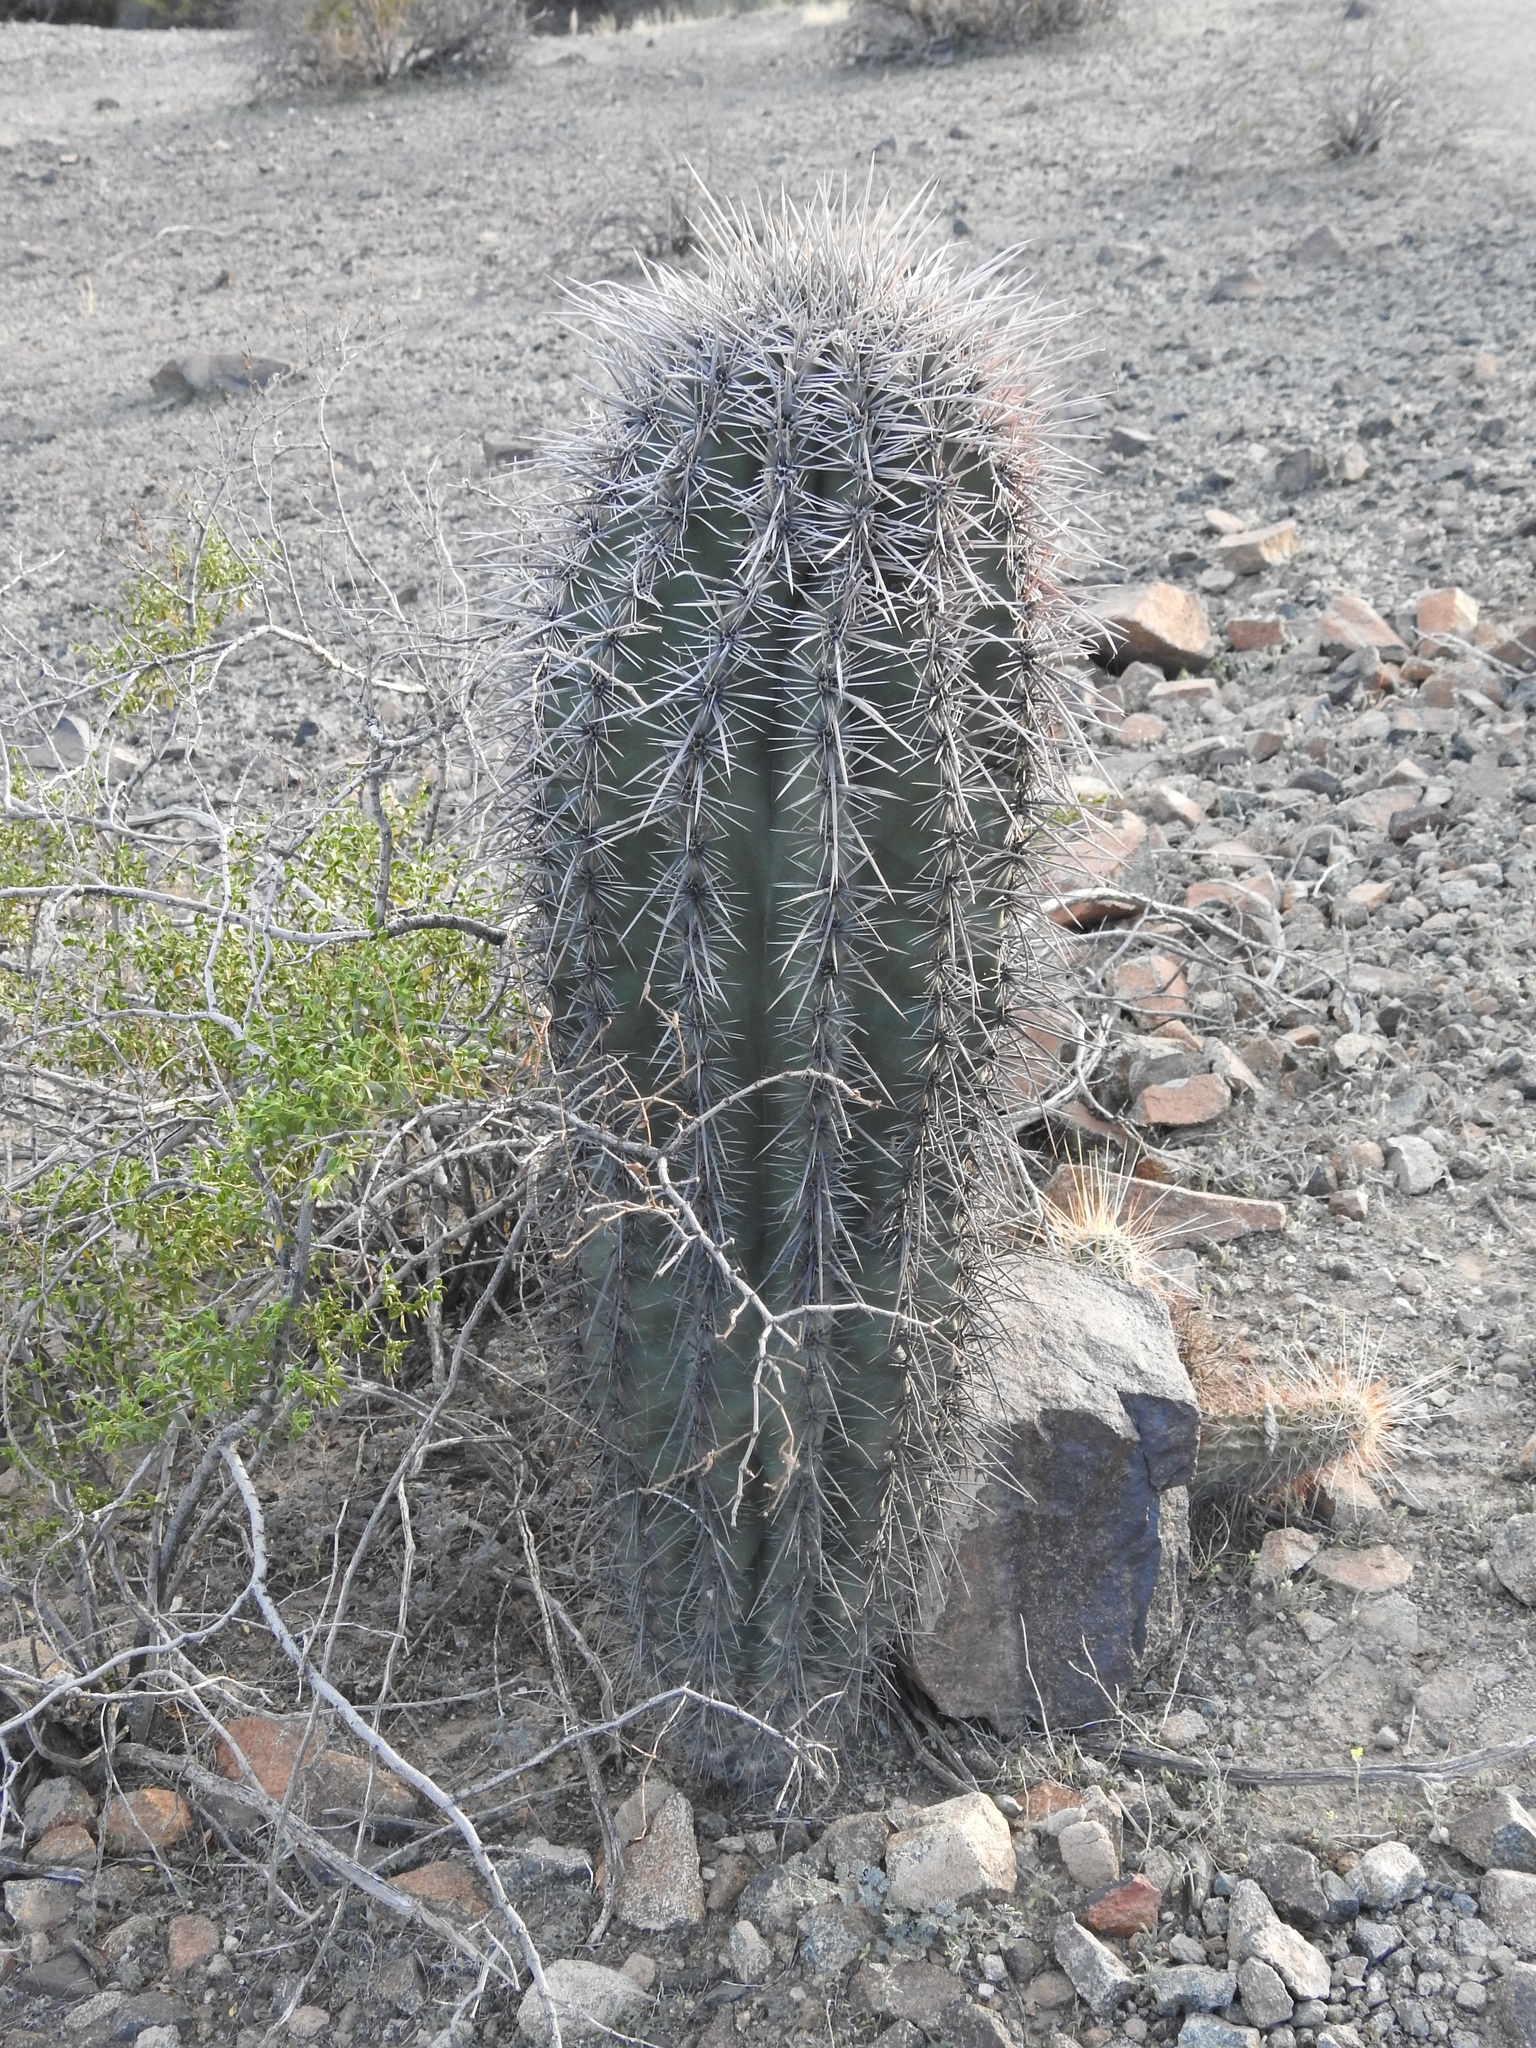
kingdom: Plantae
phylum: Tracheophyta
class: Magnoliopsida
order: Caryophyllales
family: Cactaceae
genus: Carnegiea
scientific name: Carnegiea gigantea
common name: Saguaro
